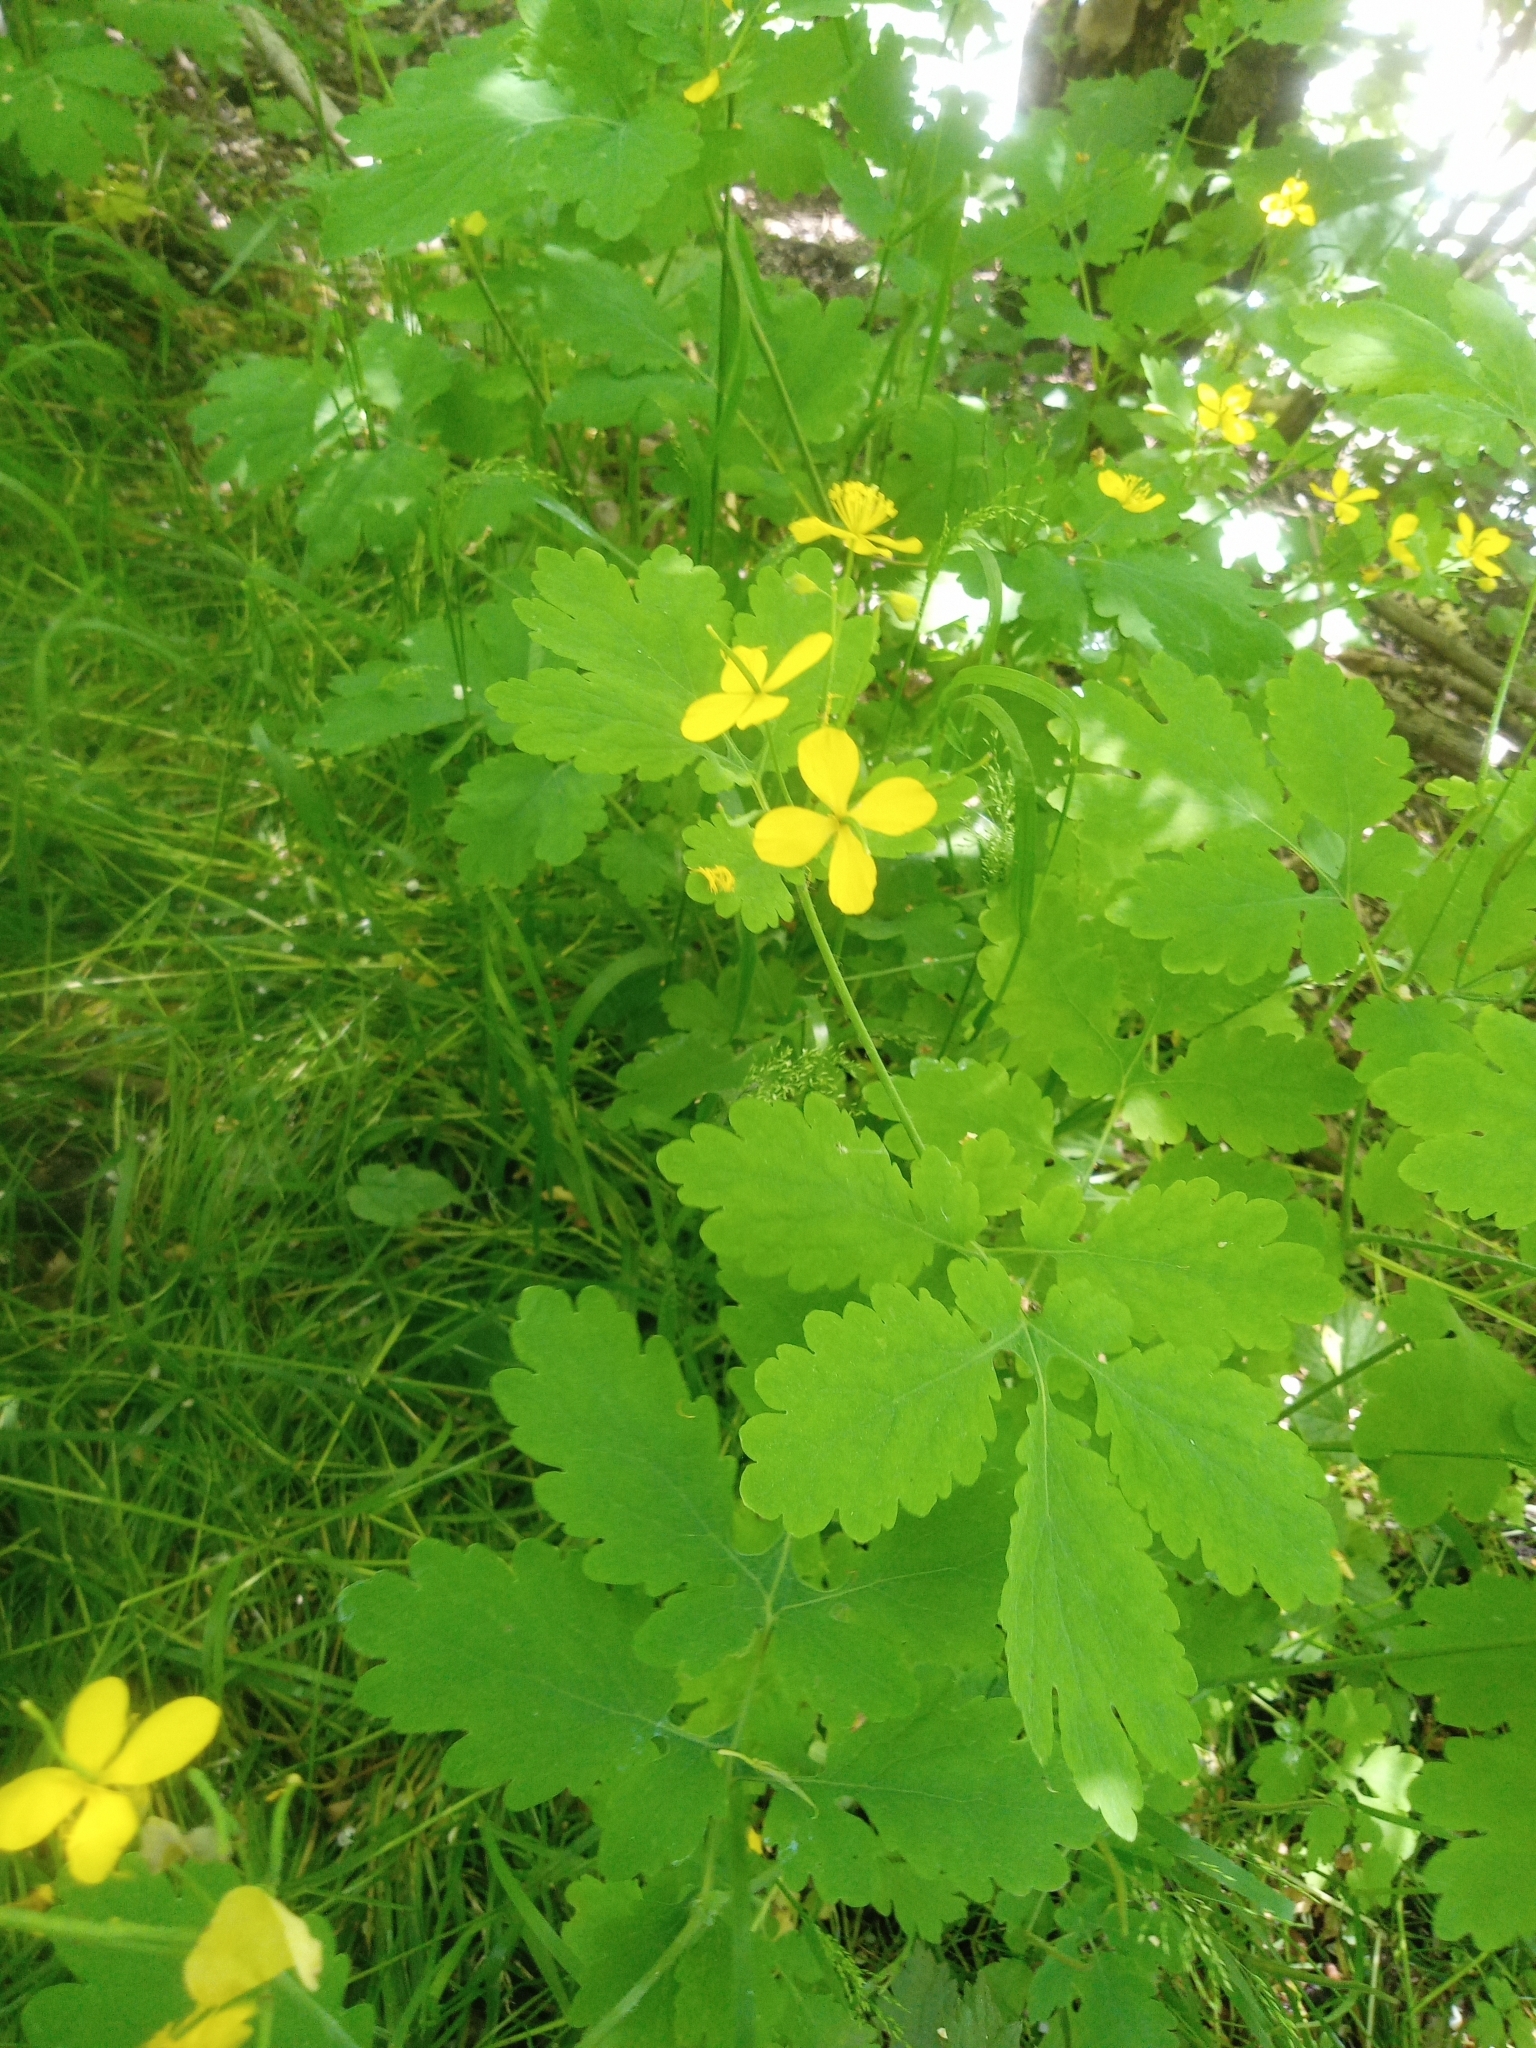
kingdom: Plantae
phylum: Tracheophyta
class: Magnoliopsida
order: Ranunculales
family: Papaveraceae
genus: Chelidonium
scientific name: Chelidonium majus
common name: Greater celandine
